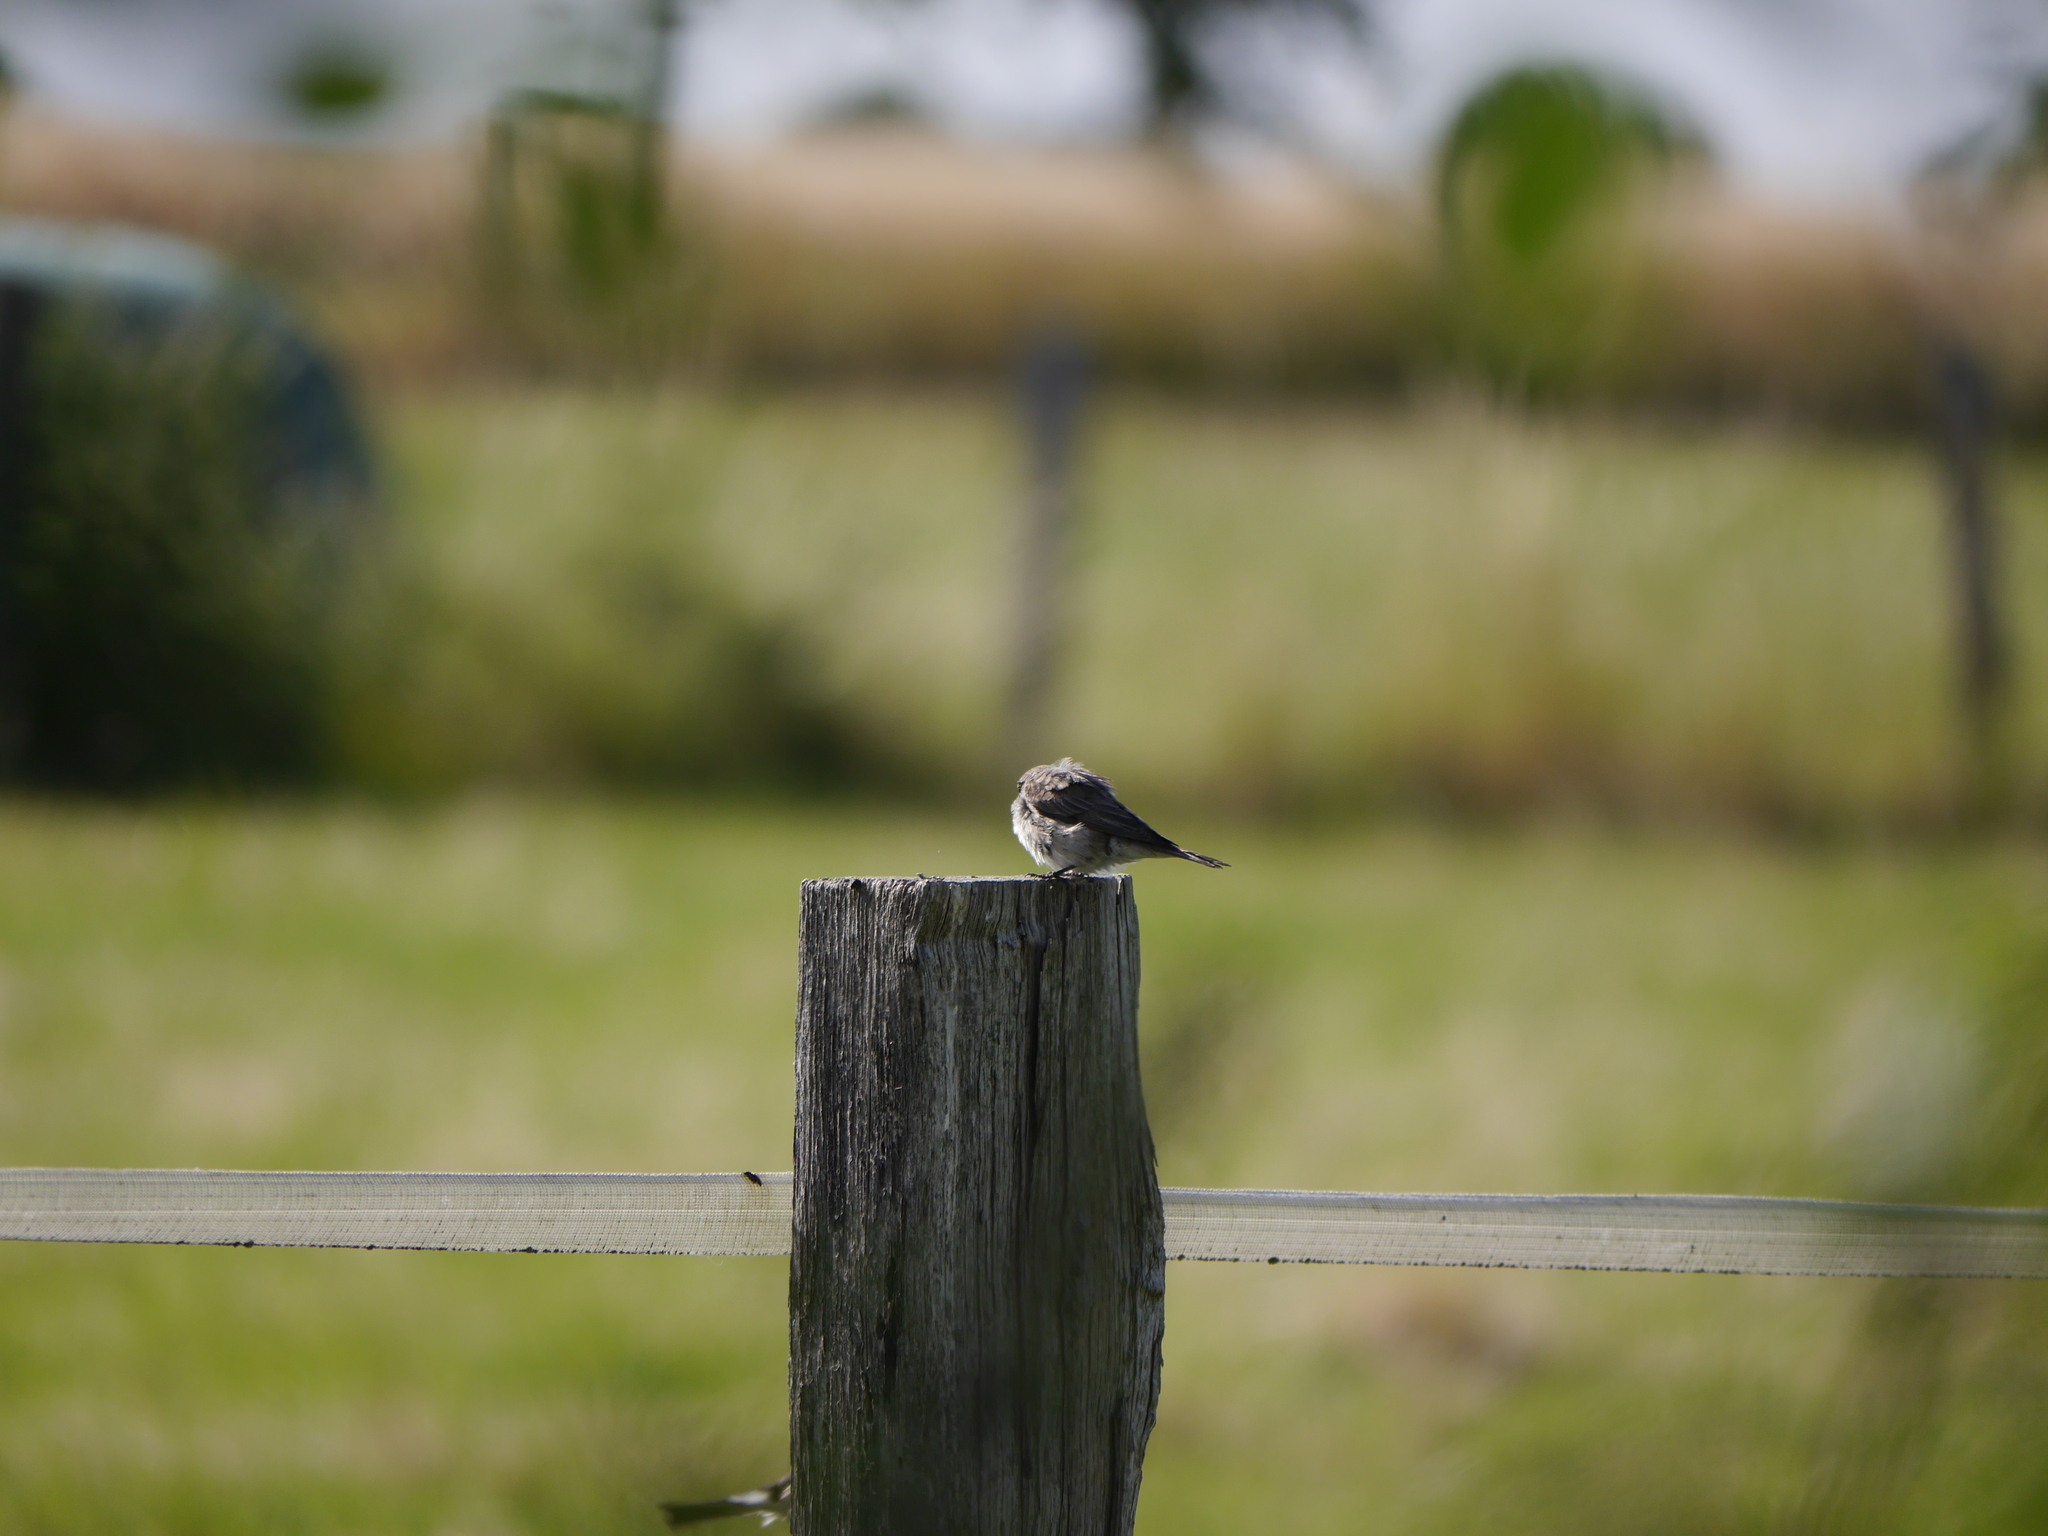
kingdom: Animalia
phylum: Chordata
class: Aves
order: Passeriformes
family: Muscicapidae
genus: Muscicapa
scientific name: Muscicapa striata
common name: Spotted flycatcher
